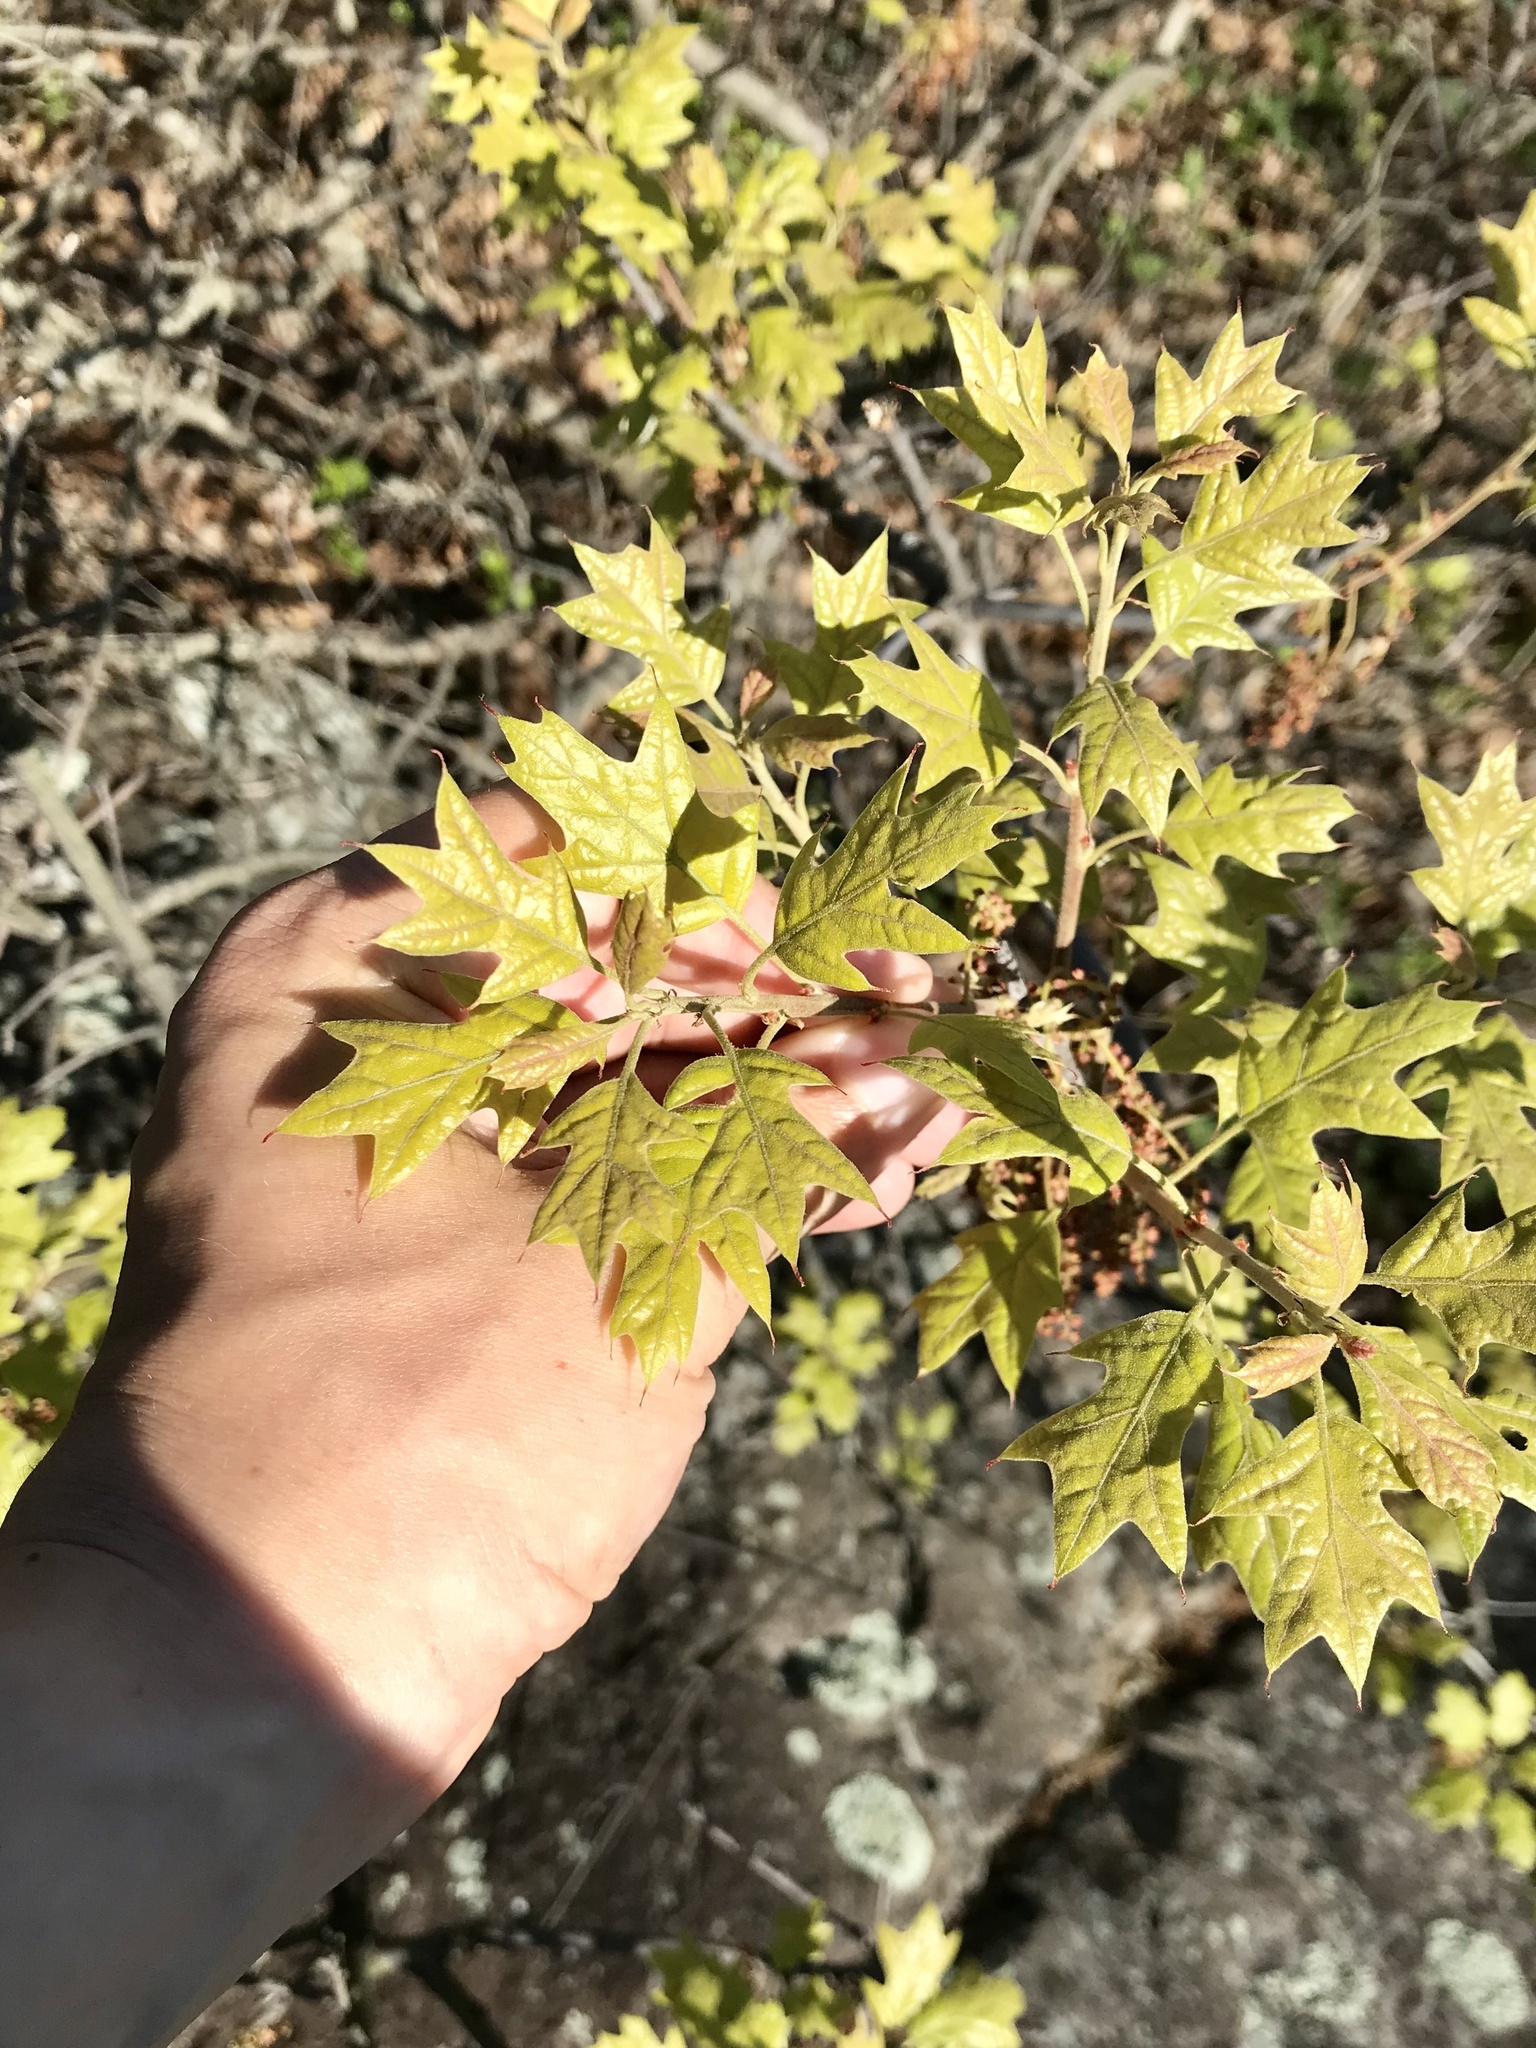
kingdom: Plantae
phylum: Tracheophyta
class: Magnoliopsida
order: Fagales
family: Fagaceae
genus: Quercus
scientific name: Quercus ilicifolia
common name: Bear oak
